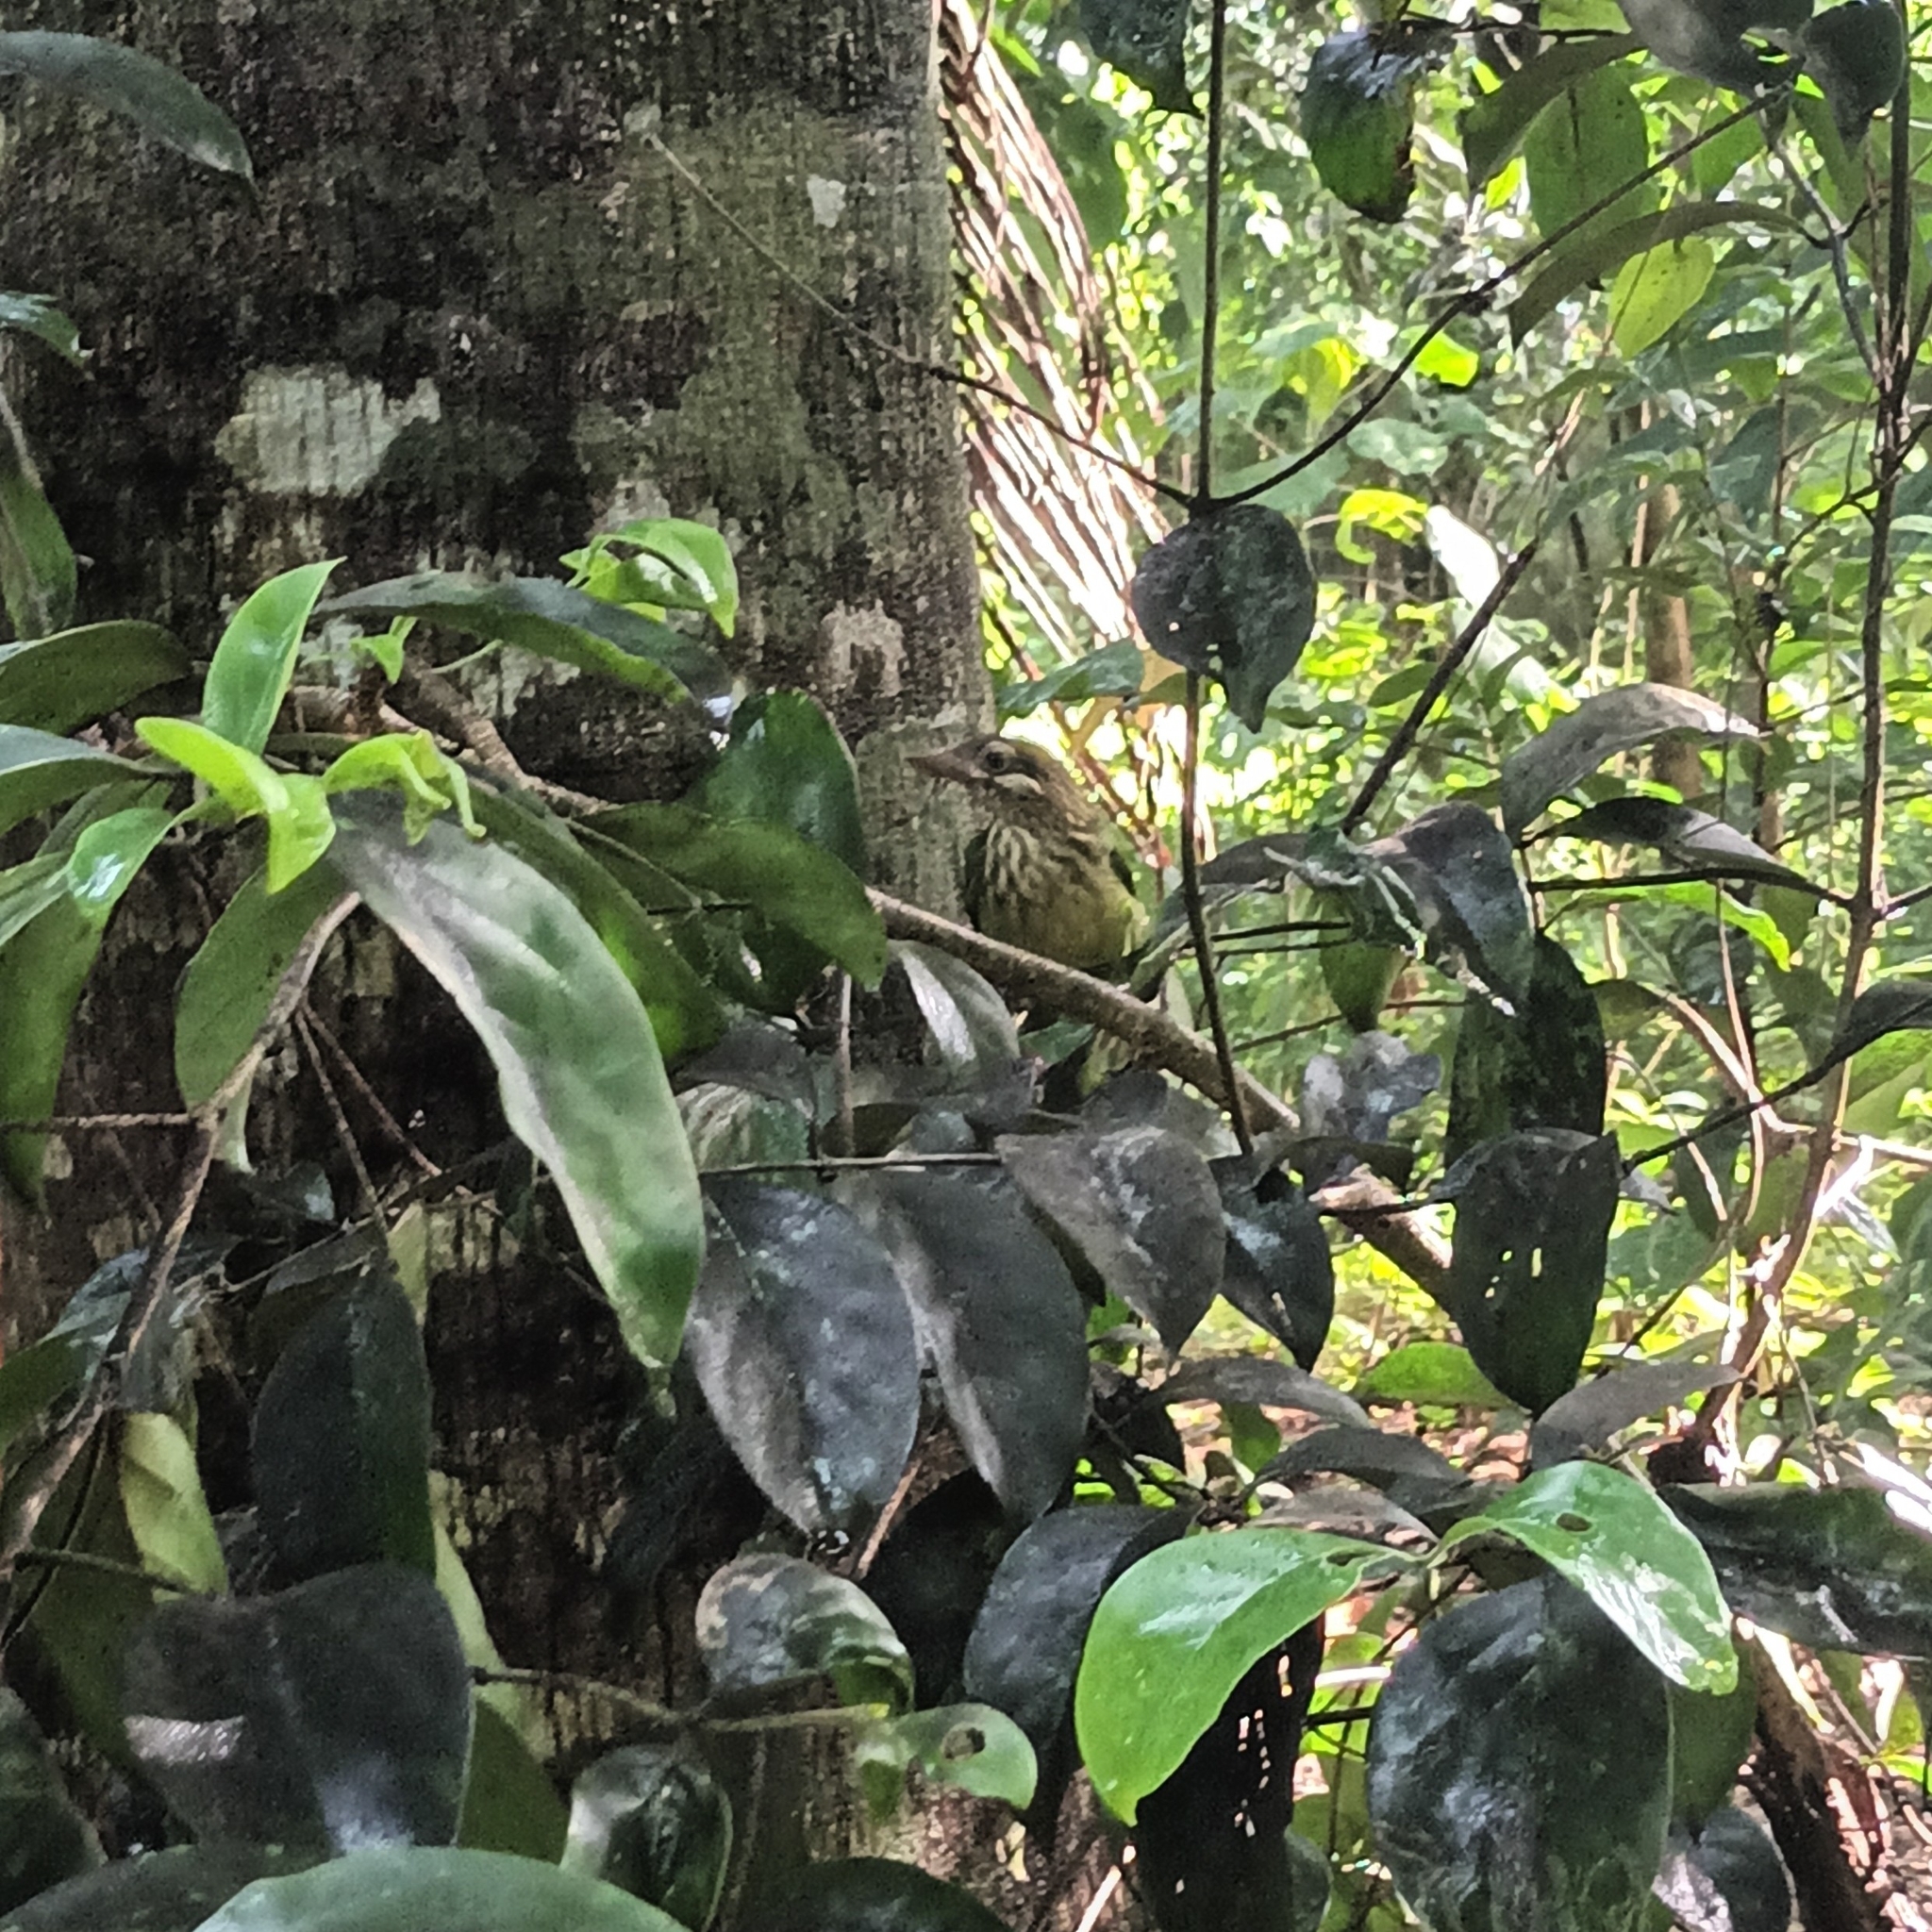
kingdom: Animalia
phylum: Chordata
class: Aves
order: Piciformes
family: Megalaimidae
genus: Psilopogon
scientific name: Psilopogon viridis
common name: White-cheeked barbet
